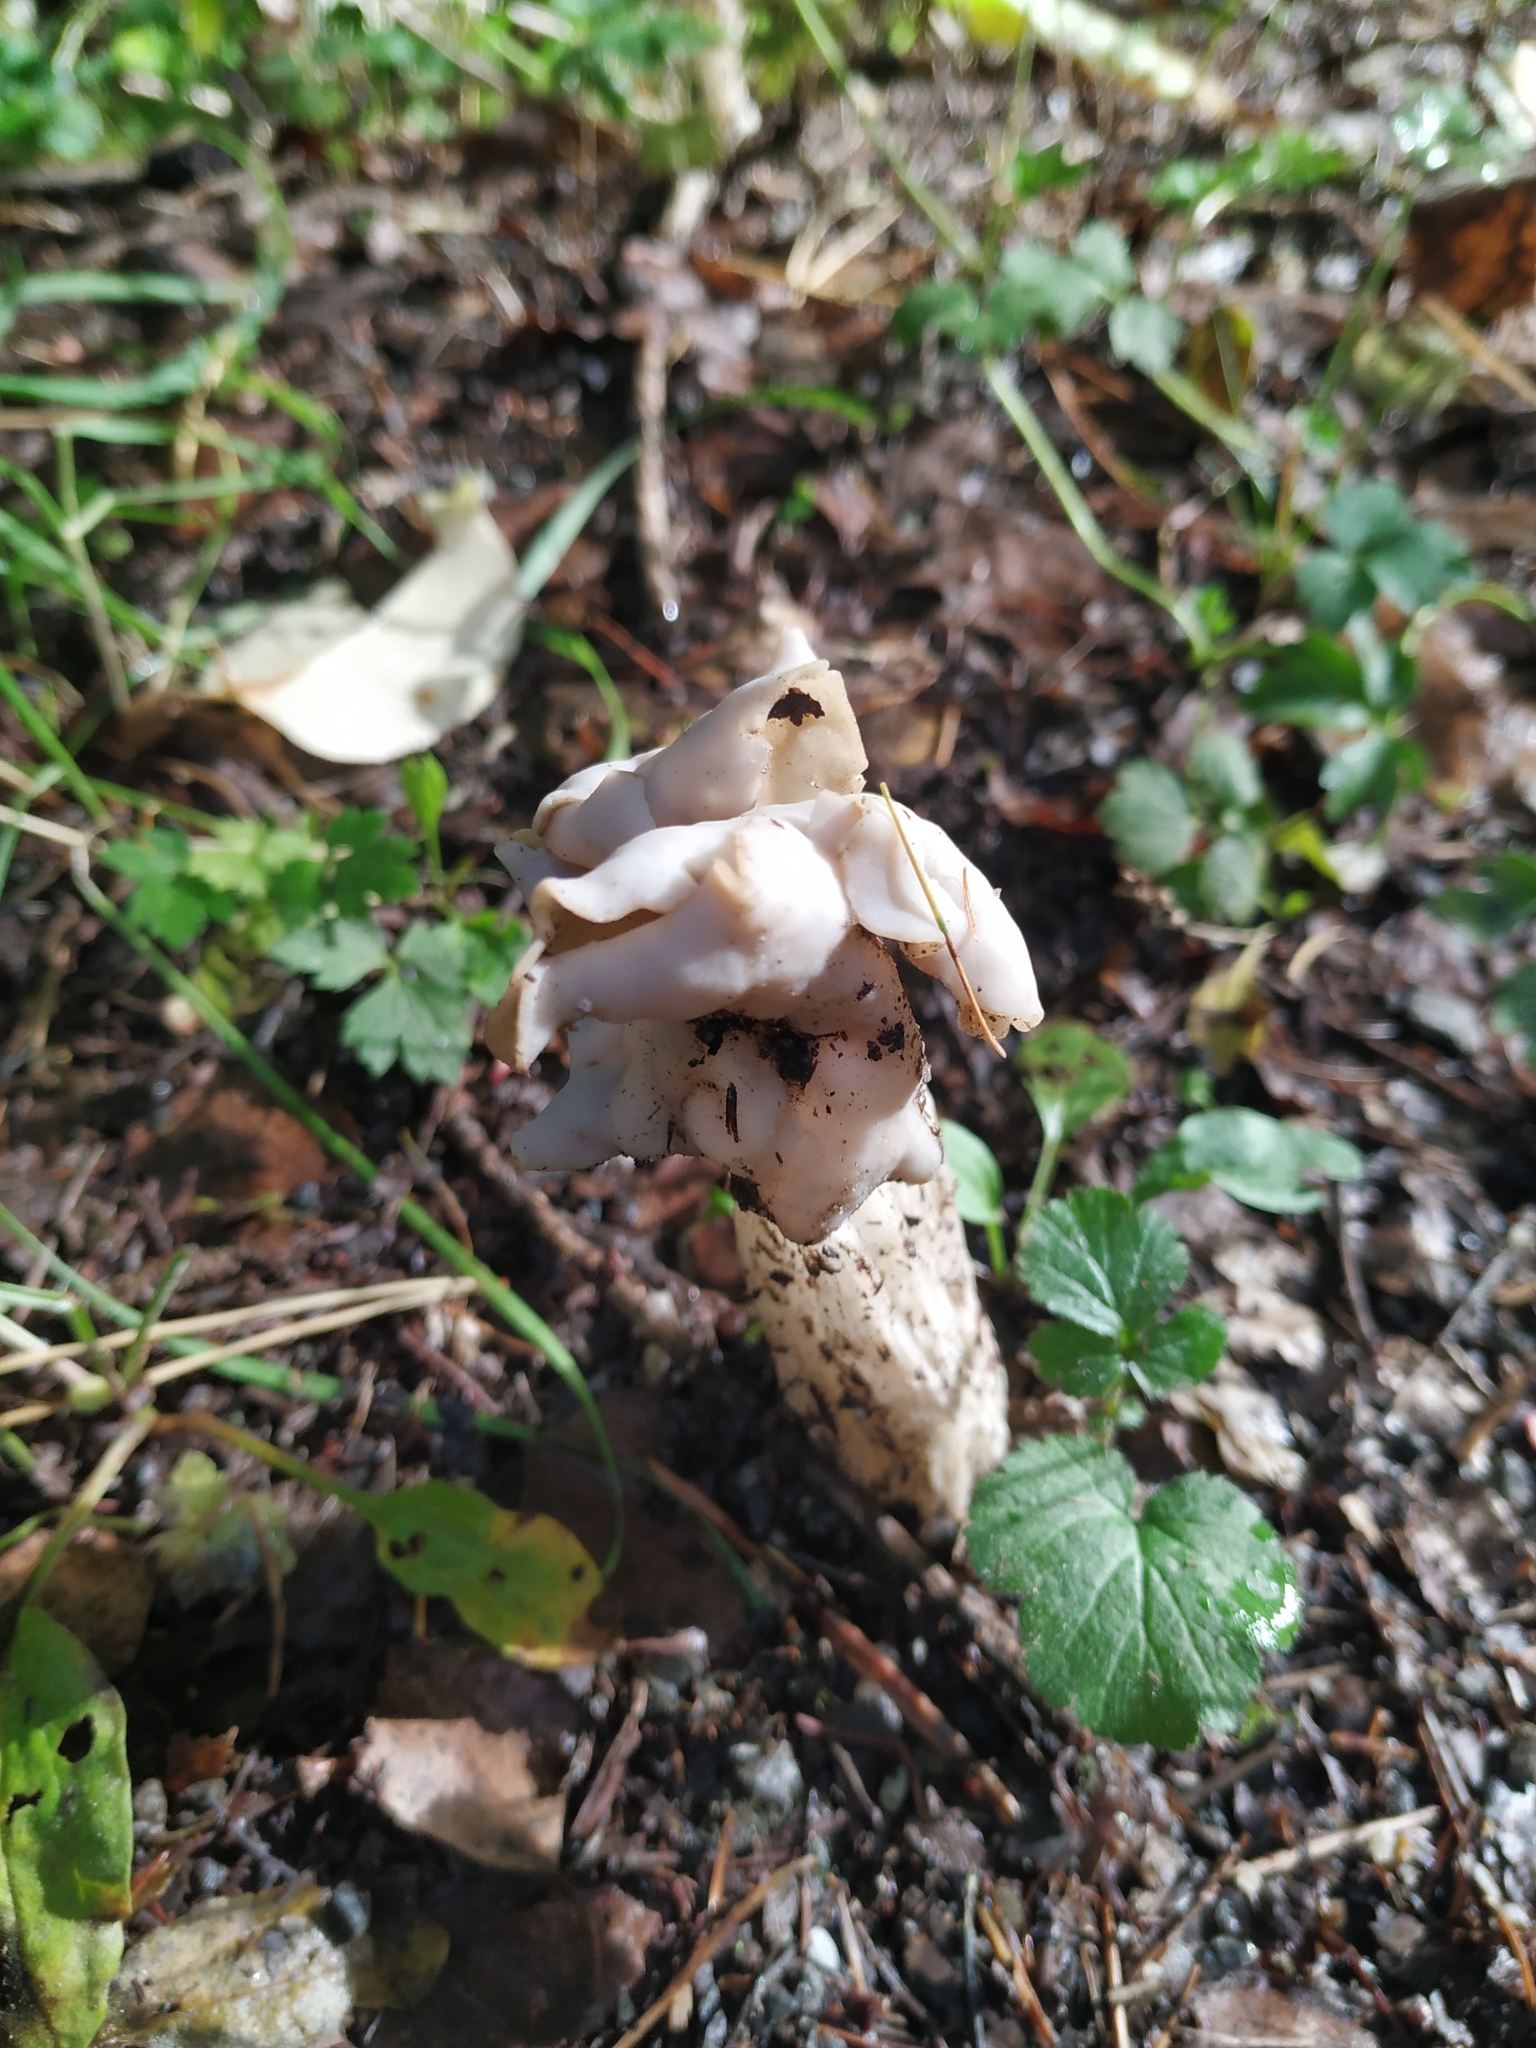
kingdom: Fungi
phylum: Ascomycota
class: Pezizomycetes
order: Pezizales
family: Helvellaceae
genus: Helvella
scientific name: Helvella crispa
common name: White saddle
